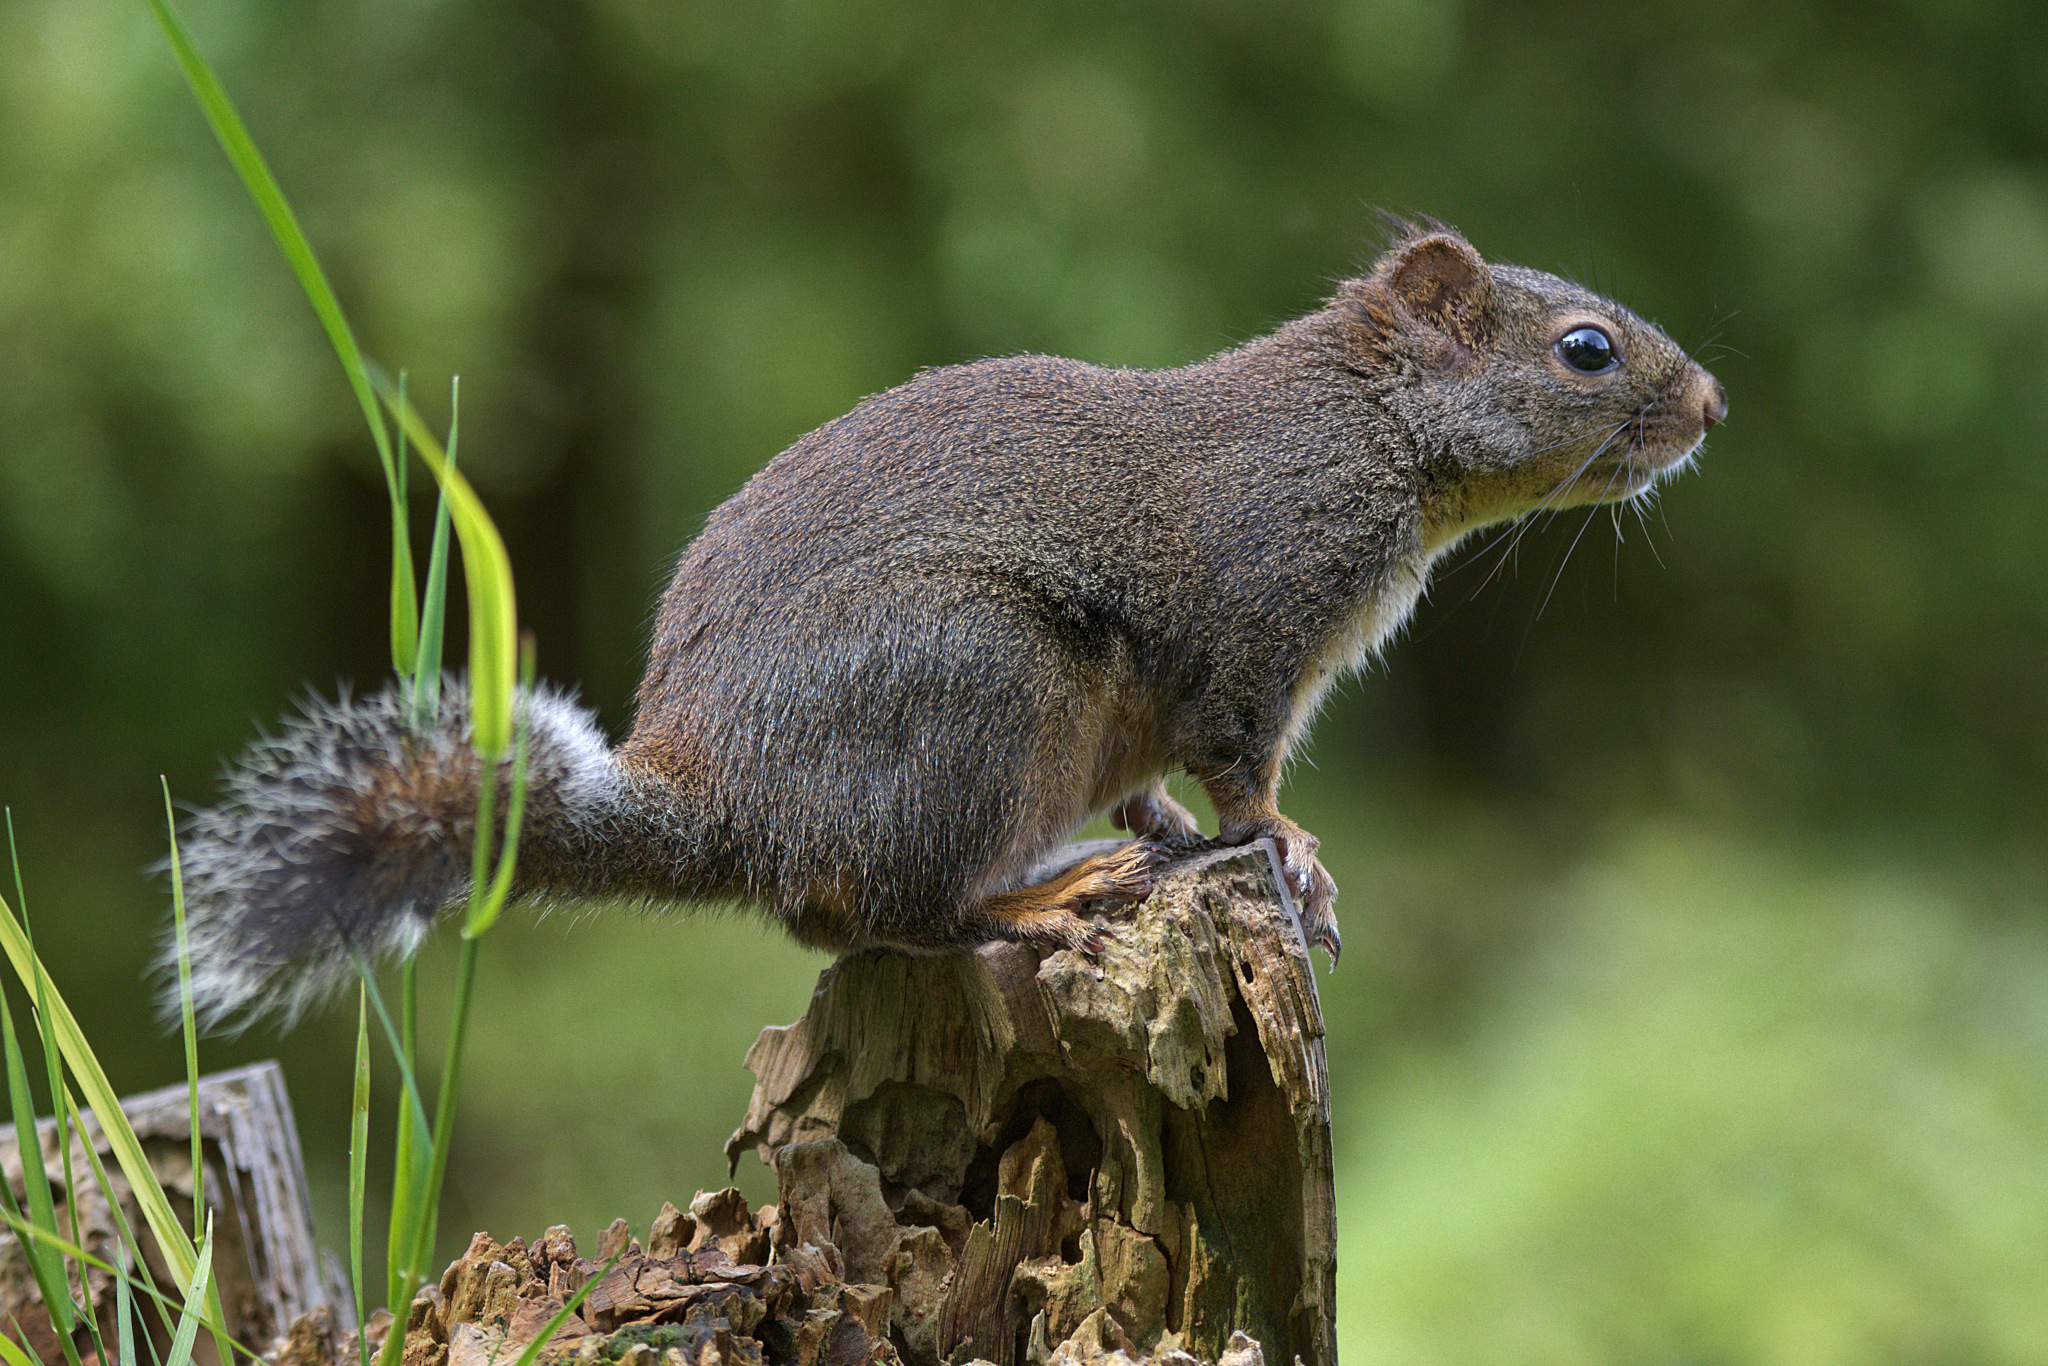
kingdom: Animalia
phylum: Chordata
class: Mammalia
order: Rodentia
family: Sciuridae
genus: Tamiasciurus
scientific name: Tamiasciurus douglasii
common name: Douglas's squirrel
